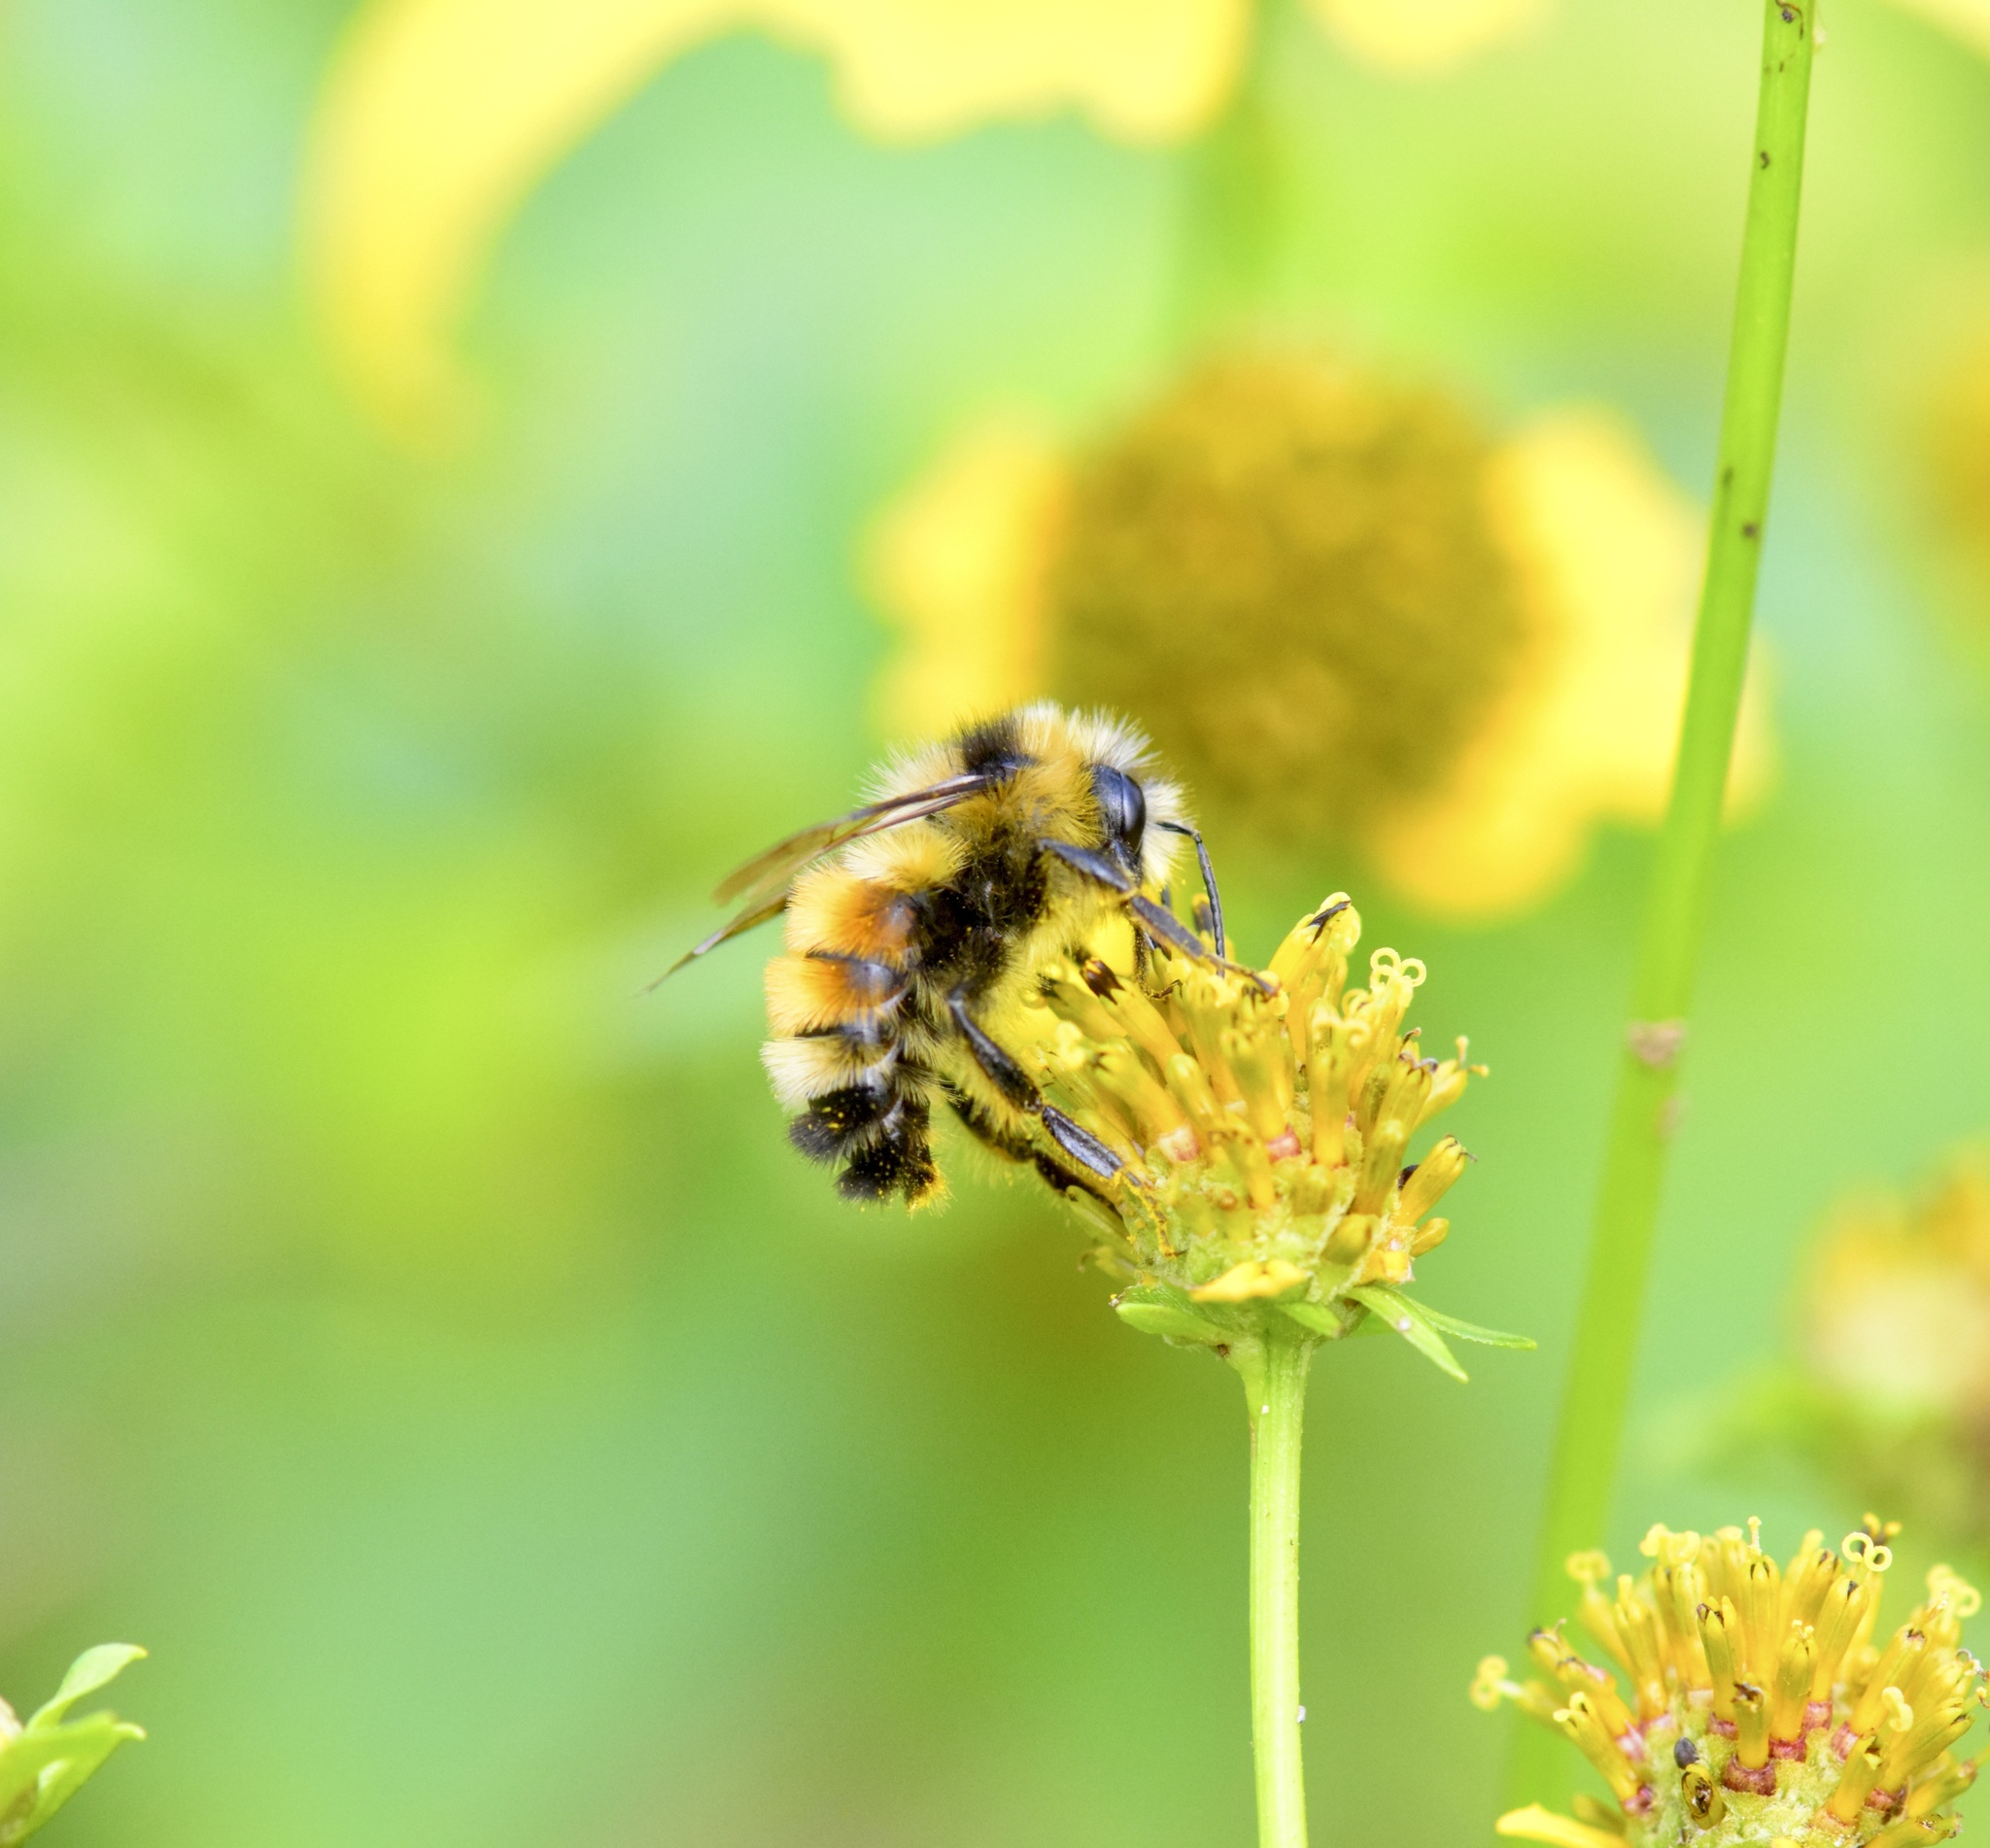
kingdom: Animalia
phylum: Arthropoda
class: Insecta
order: Hymenoptera
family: Apidae
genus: Bombus
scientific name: Bombus ternarius
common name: Tri-colored bumble bee
